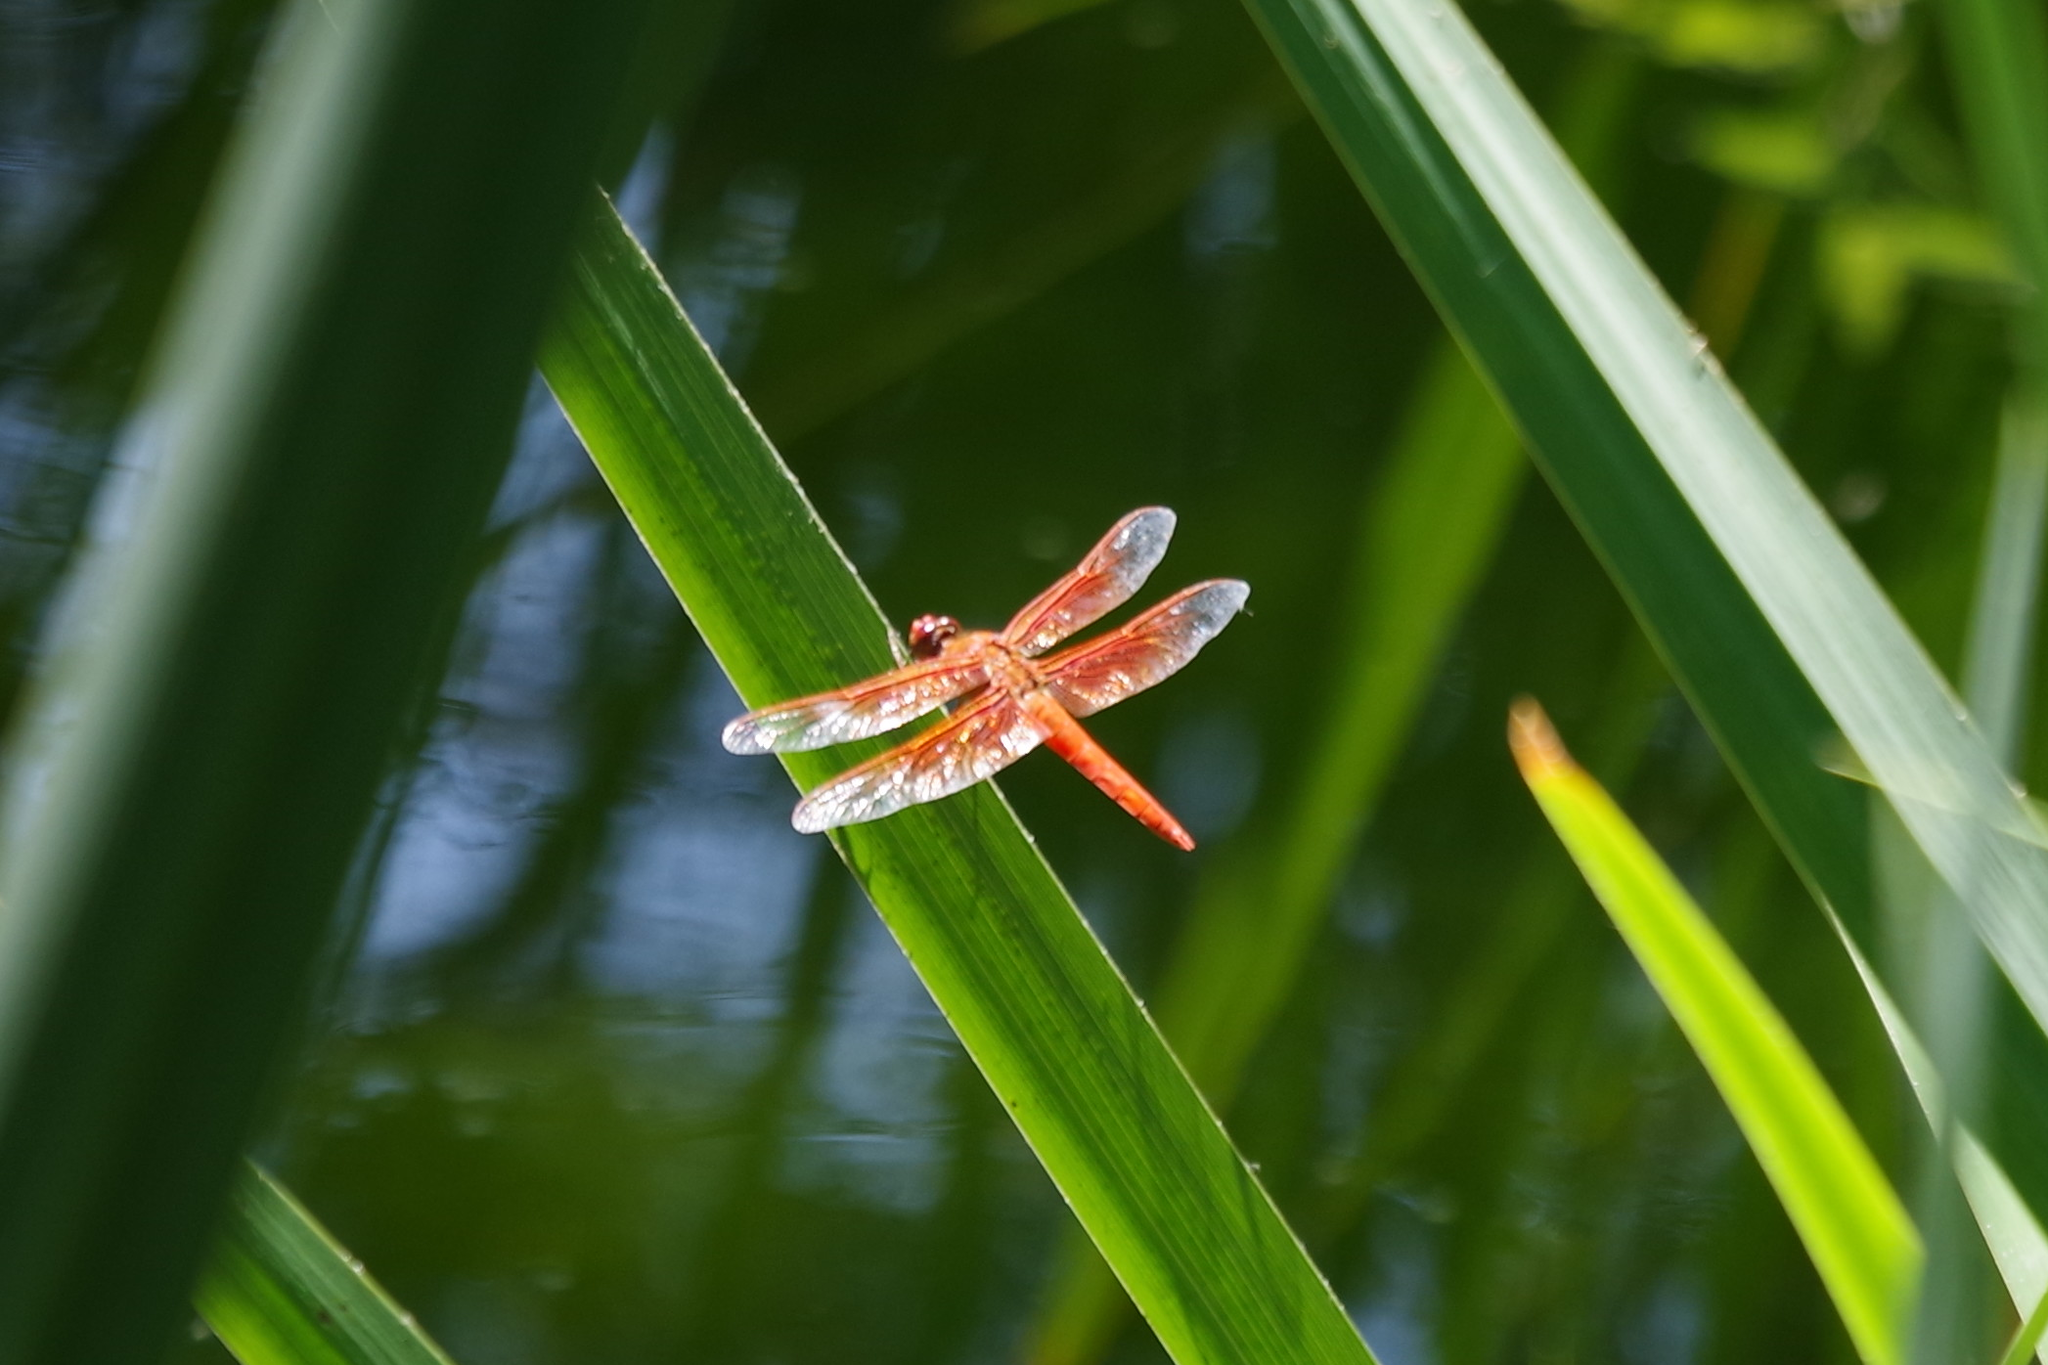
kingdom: Animalia
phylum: Arthropoda
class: Insecta
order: Odonata
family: Libellulidae
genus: Libellula
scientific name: Libellula saturata
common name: Flame skimmer
